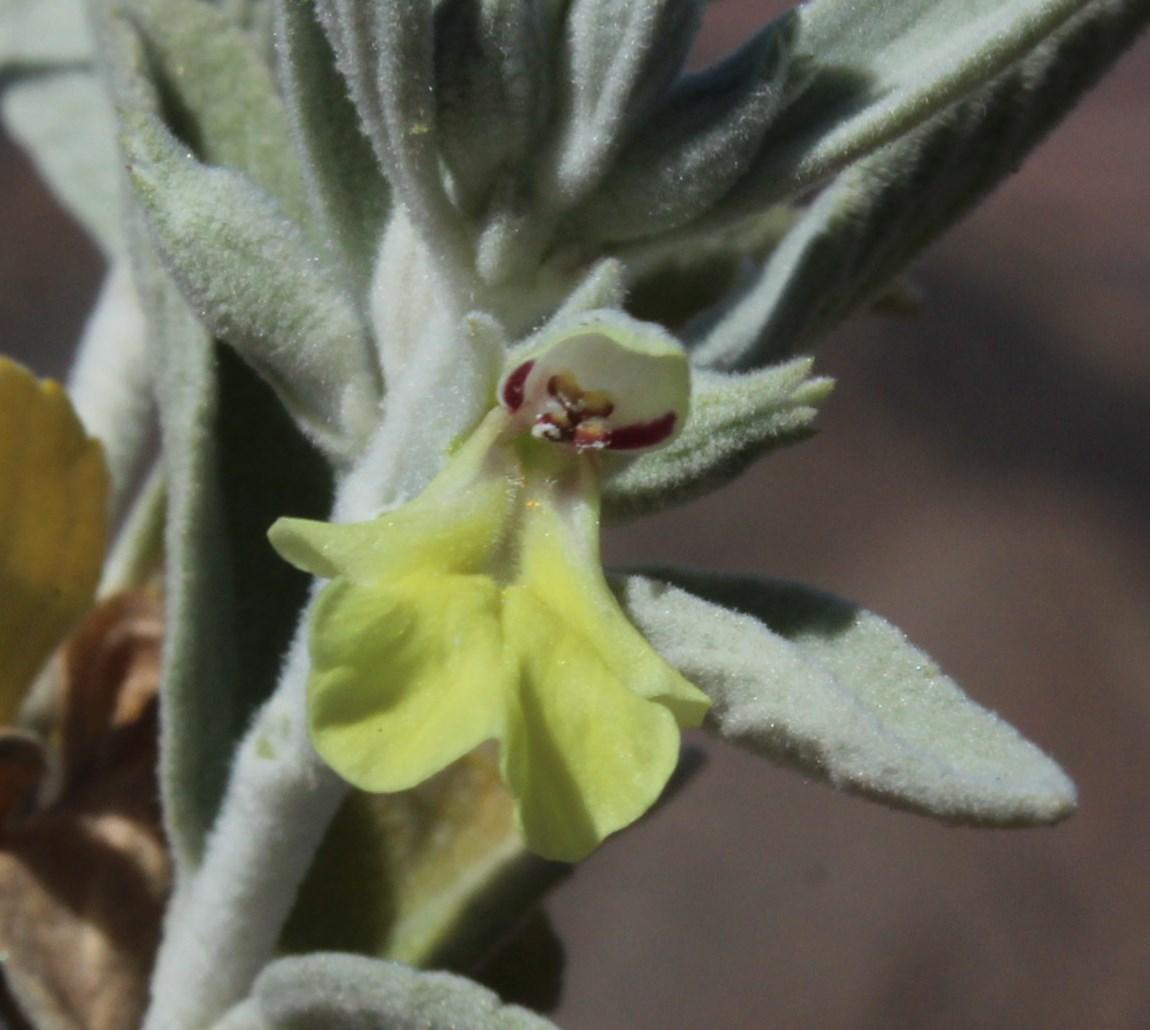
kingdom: Plantae
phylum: Tracheophyta
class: Magnoliopsida
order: Lamiales
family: Lamiaceae
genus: Stachys
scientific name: Stachys rugosa
